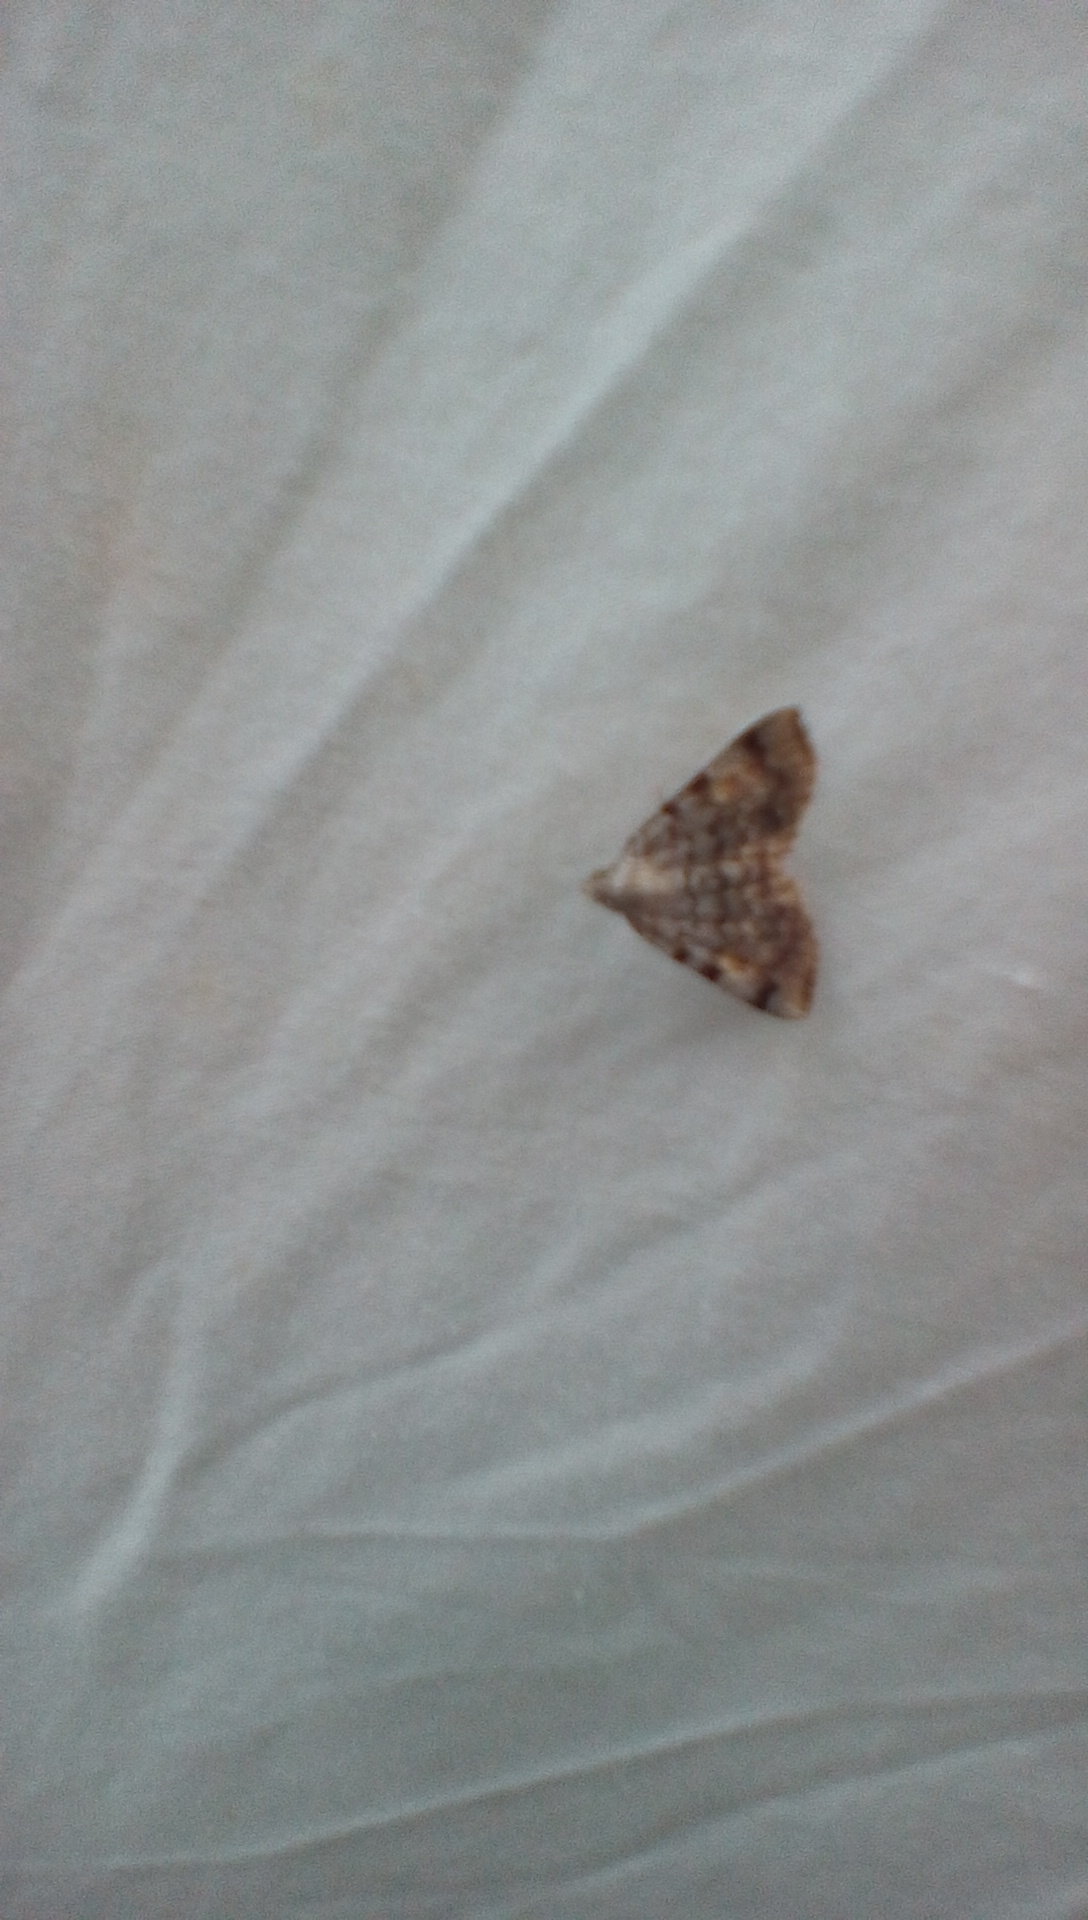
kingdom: Animalia
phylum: Arthropoda
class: Insecta
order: Lepidoptera
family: Erebidae
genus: Idia
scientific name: Idia americalis
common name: American idia moth
